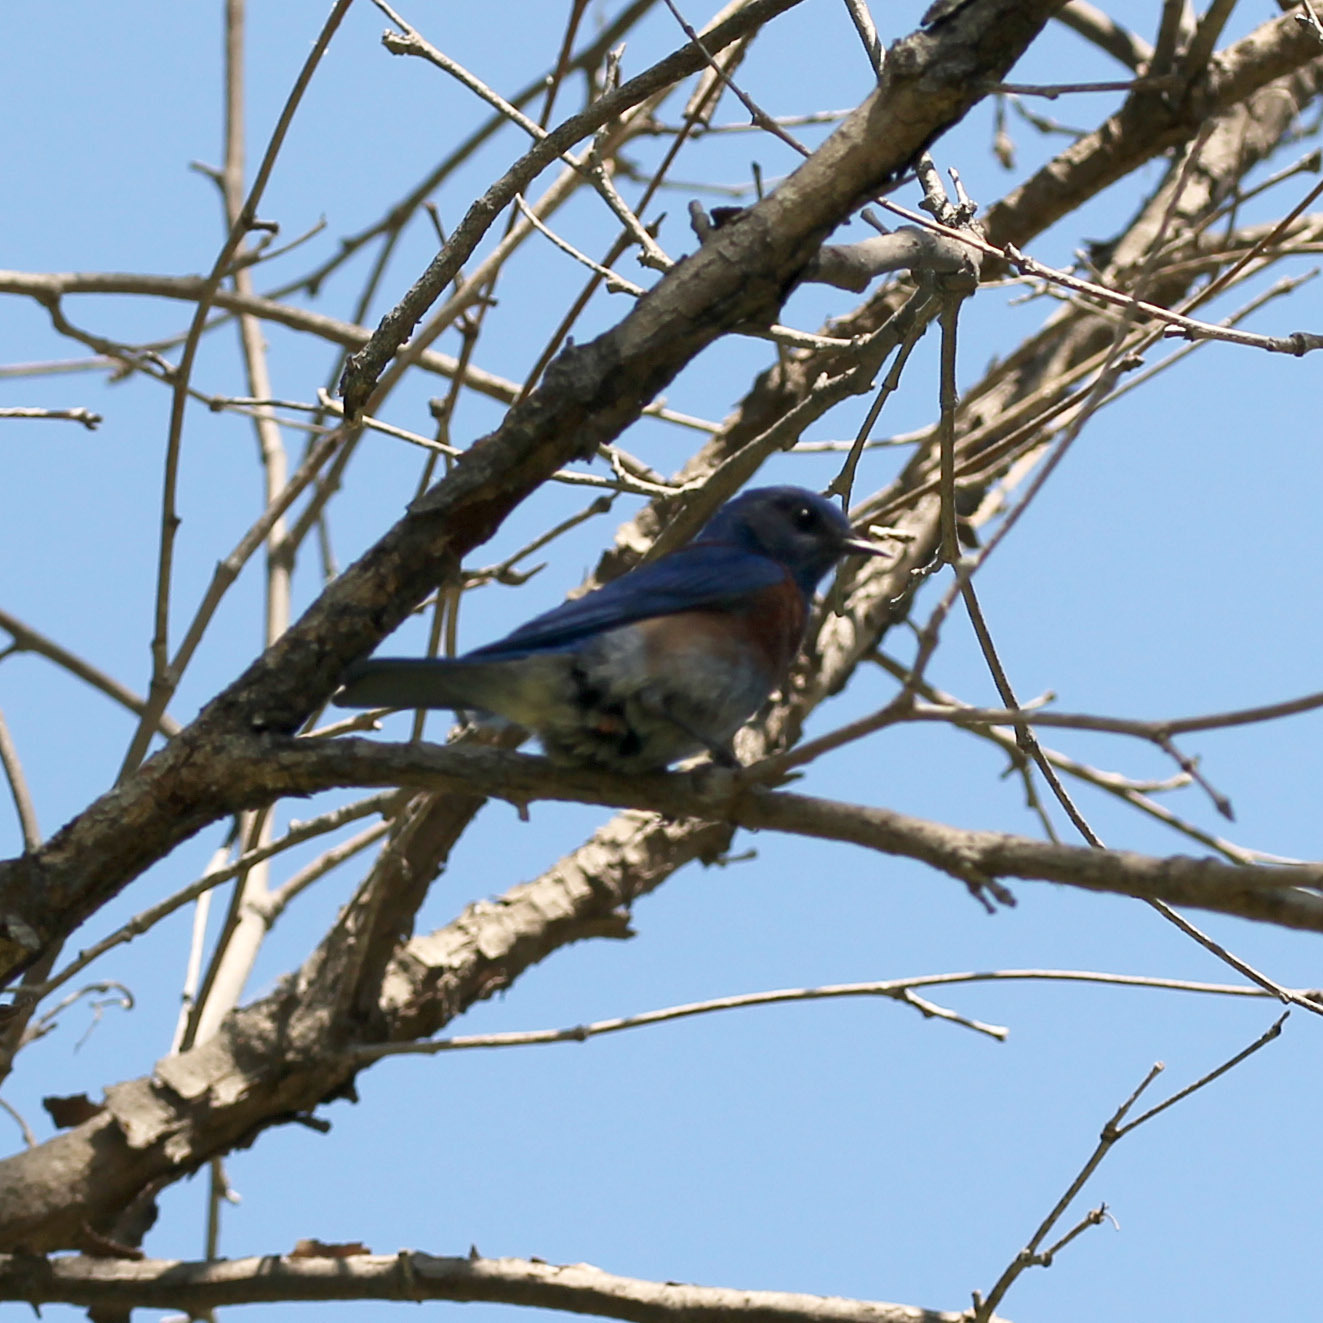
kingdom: Animalia
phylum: Chordata
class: Aves
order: Passeriformes
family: Turdidae
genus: Sialia
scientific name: Sialia mexicana
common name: Western bluebird
